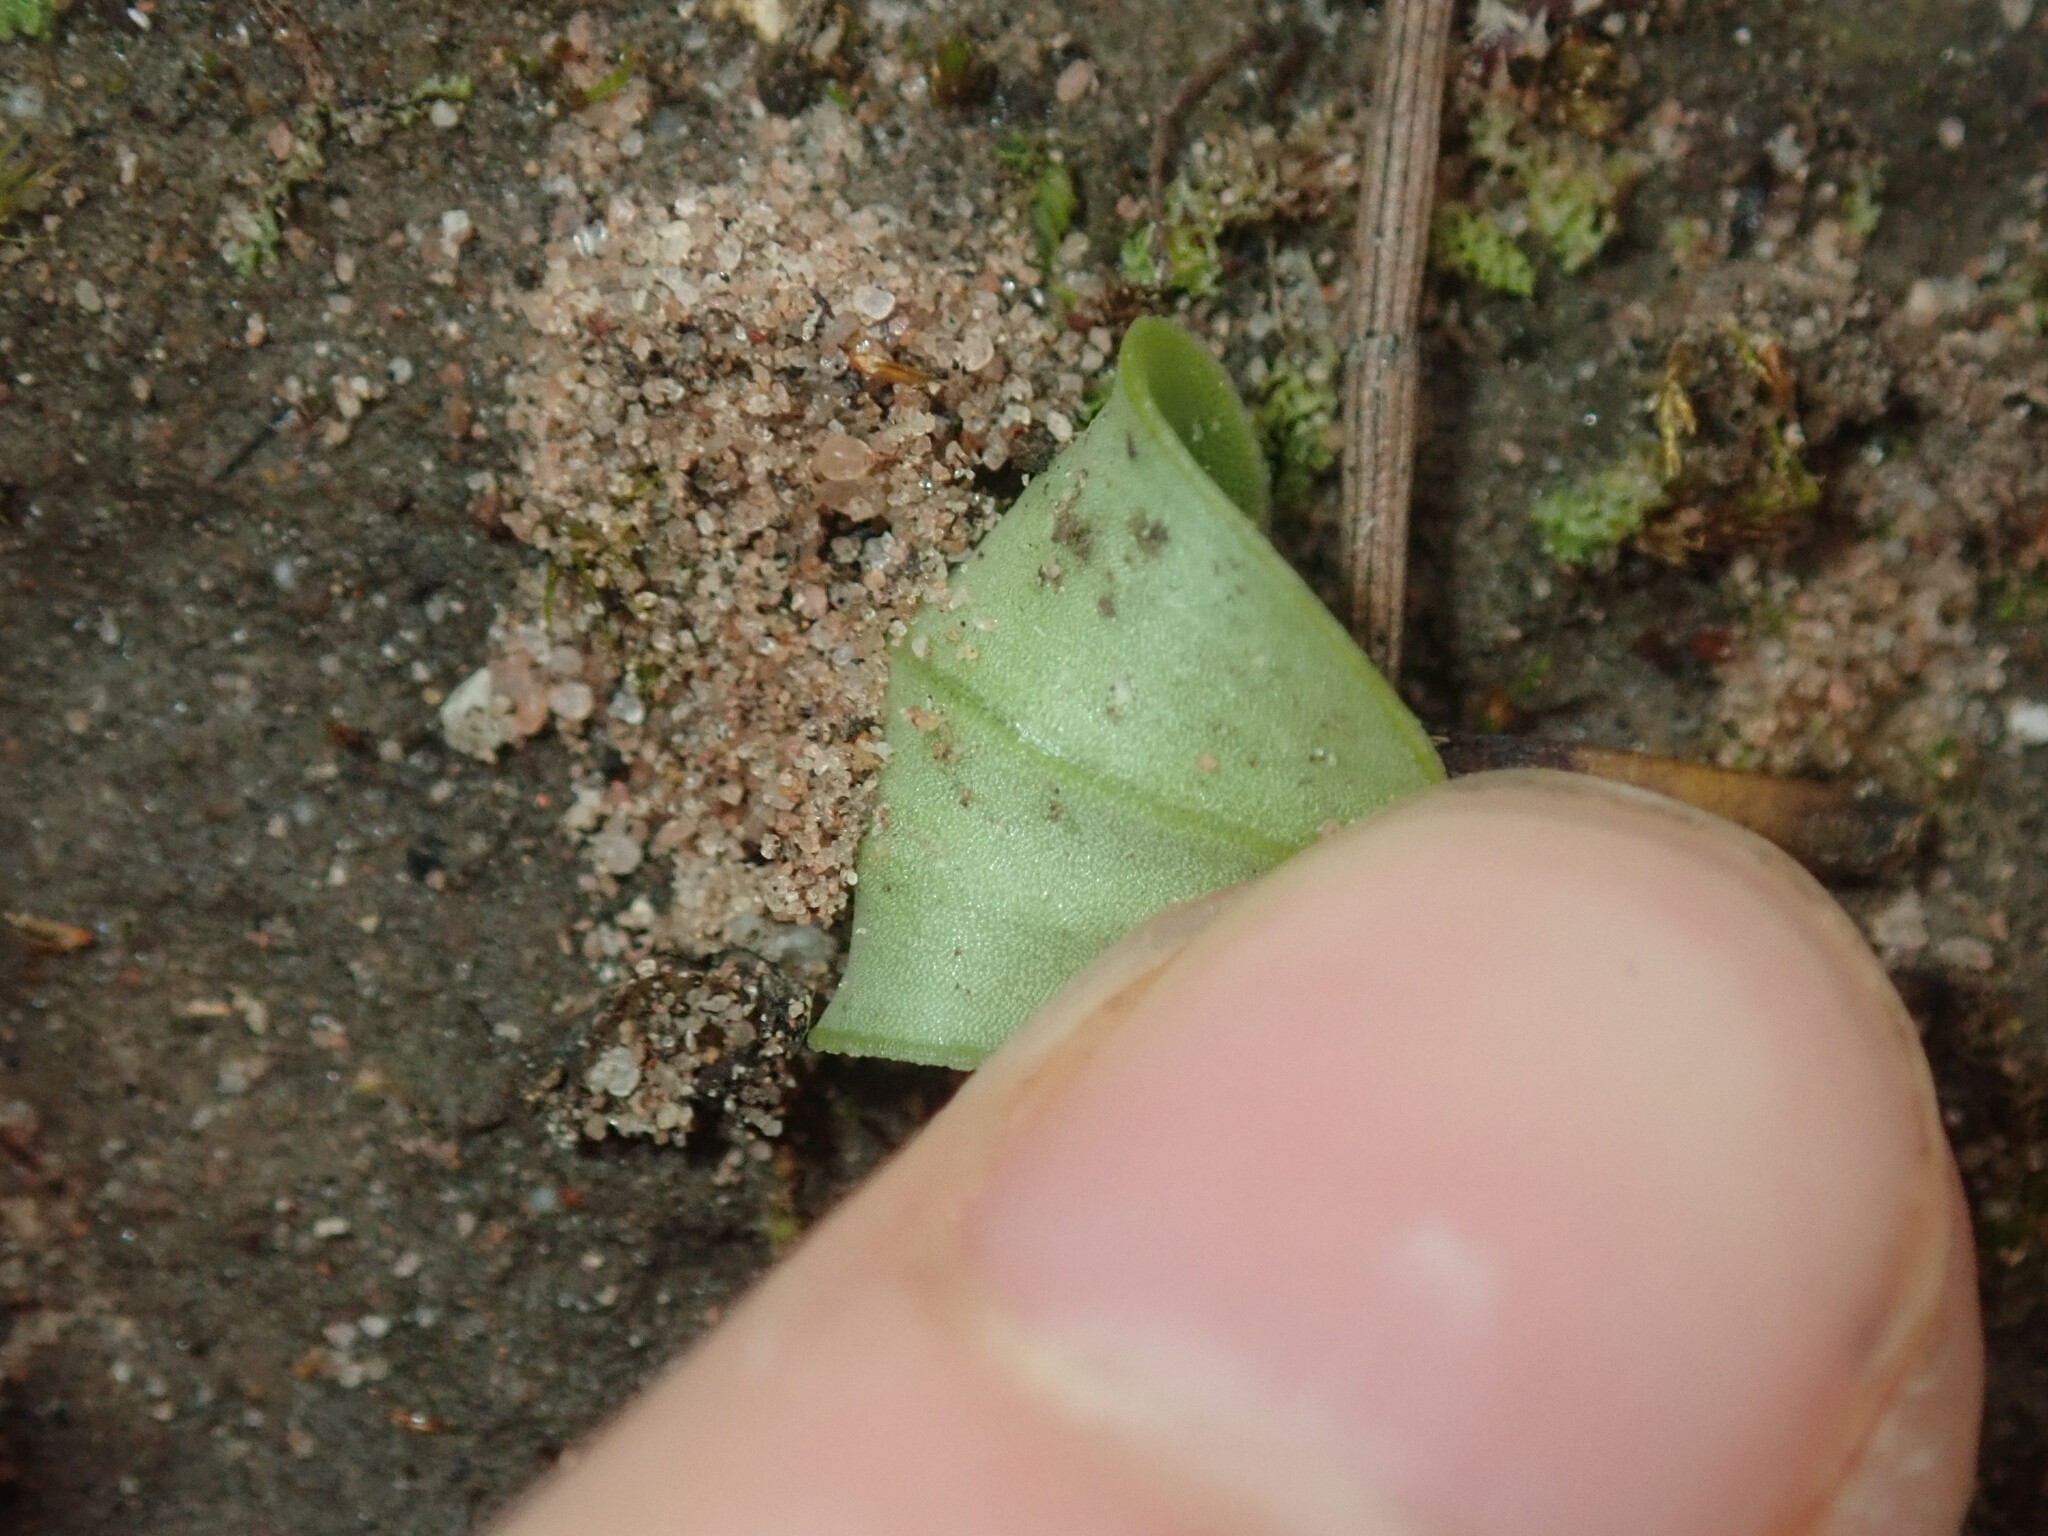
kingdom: Plantae
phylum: Tracheophyta
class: Liliopsida
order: Asparagales
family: Orchidaceae
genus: Leptoceras
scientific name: Leptoceras menziesii
